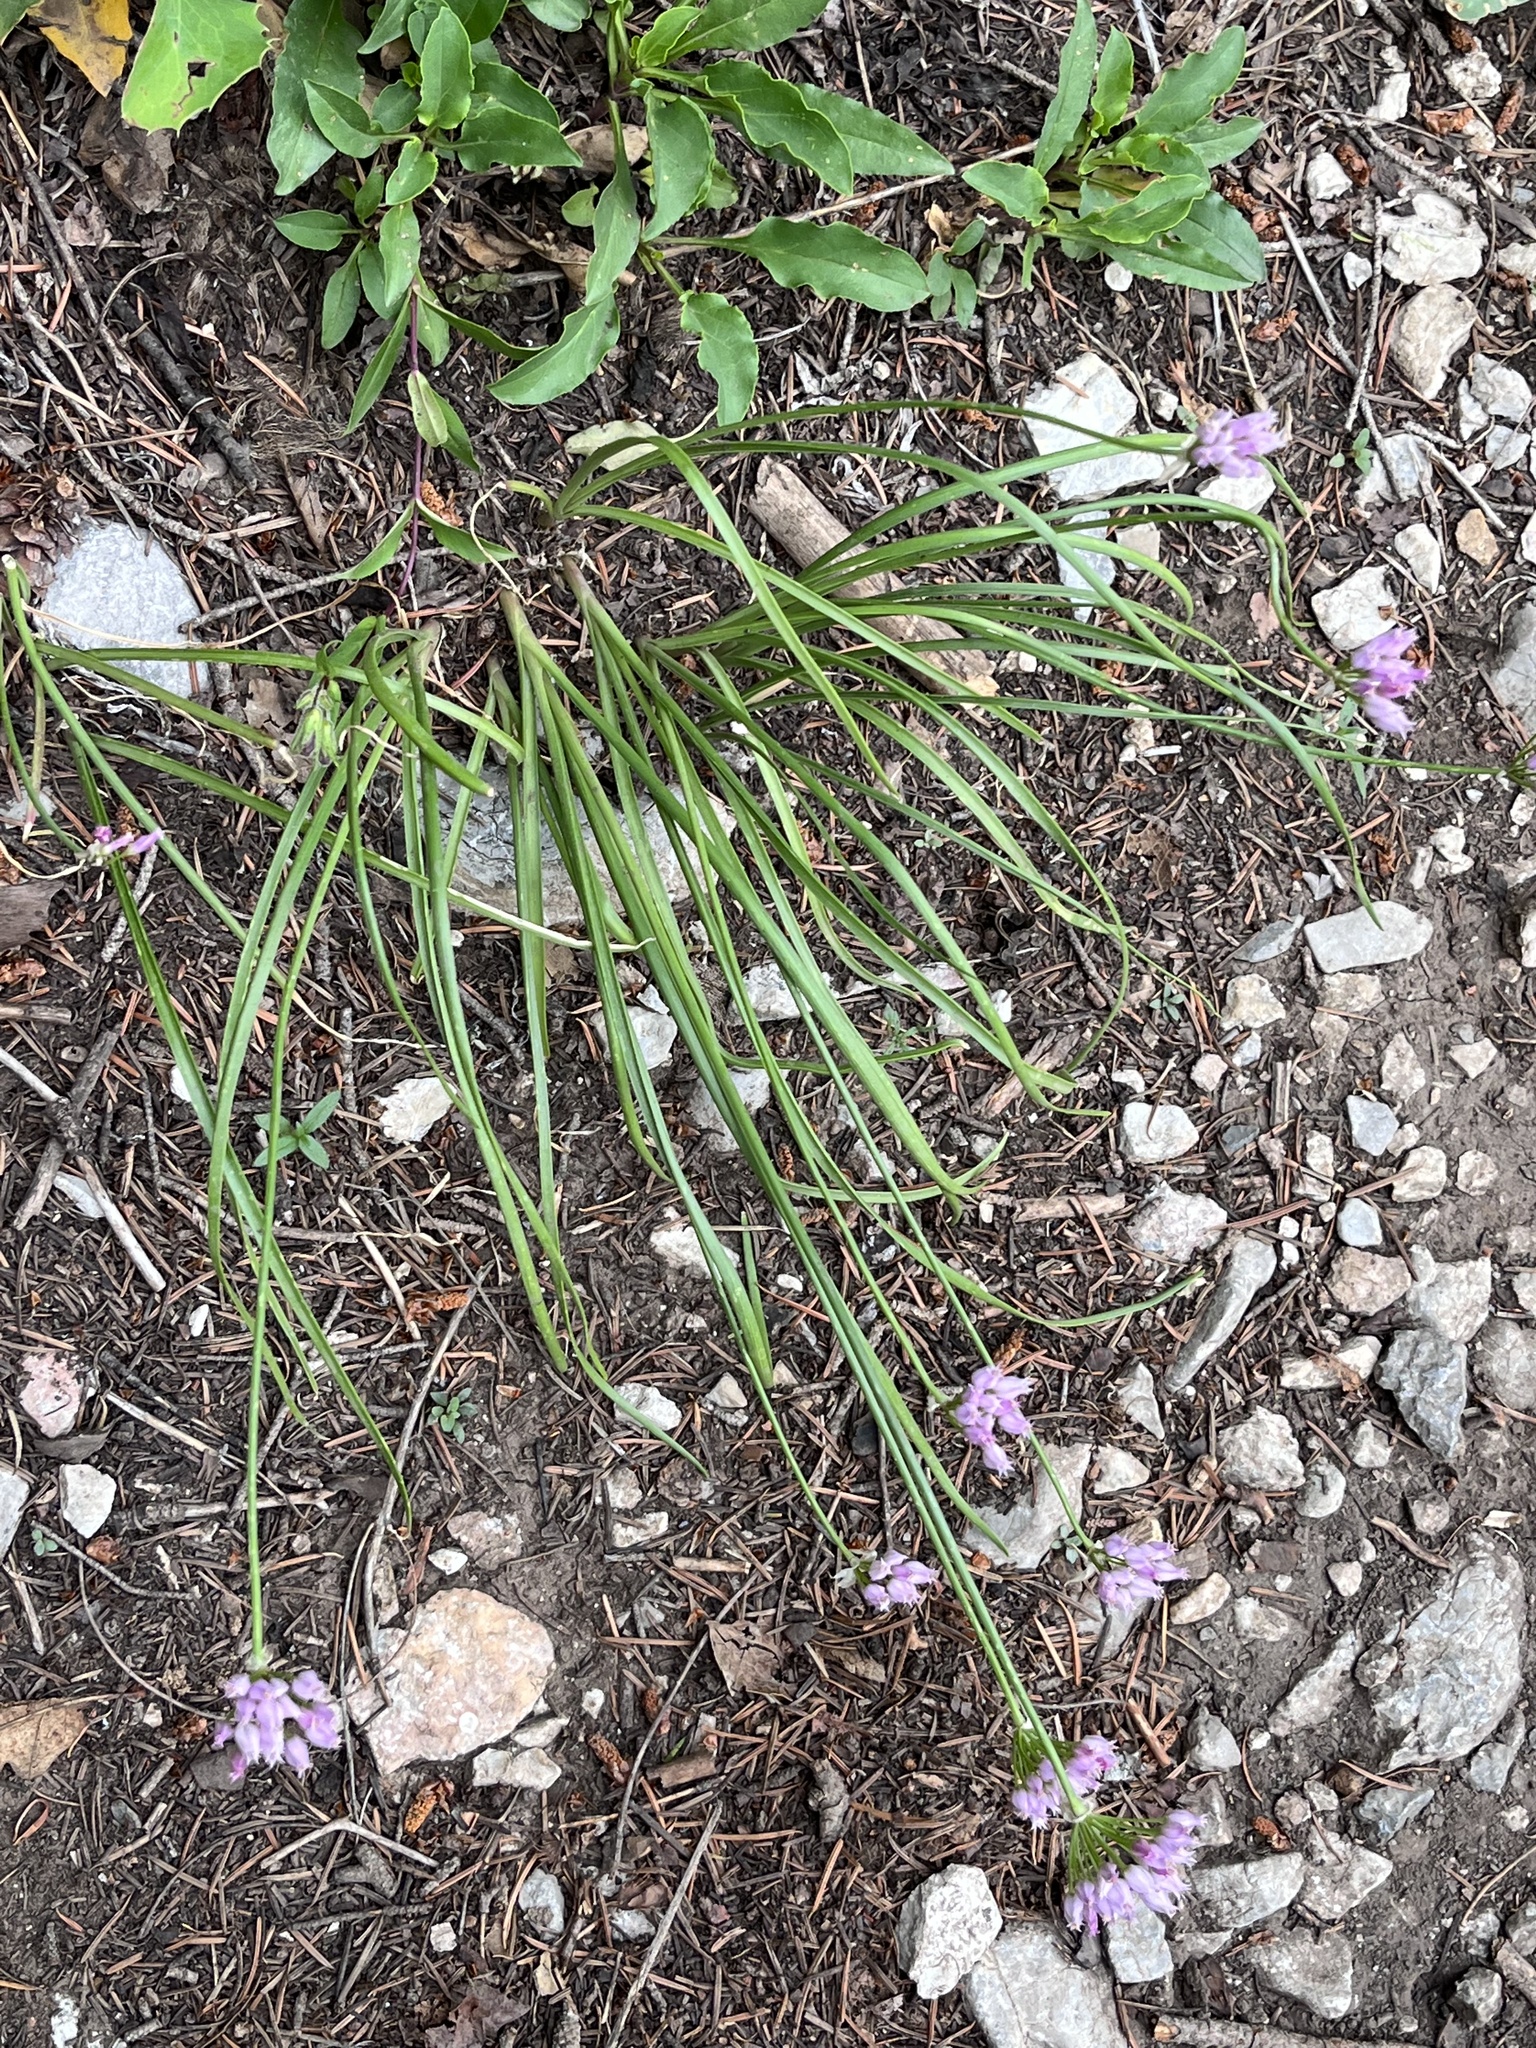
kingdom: Plantae
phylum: Tracheophyta
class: Liliopsida
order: Asparagales
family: Amaryllidaceae
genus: Allium
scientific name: Allium geyeri
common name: Geyer's onion
